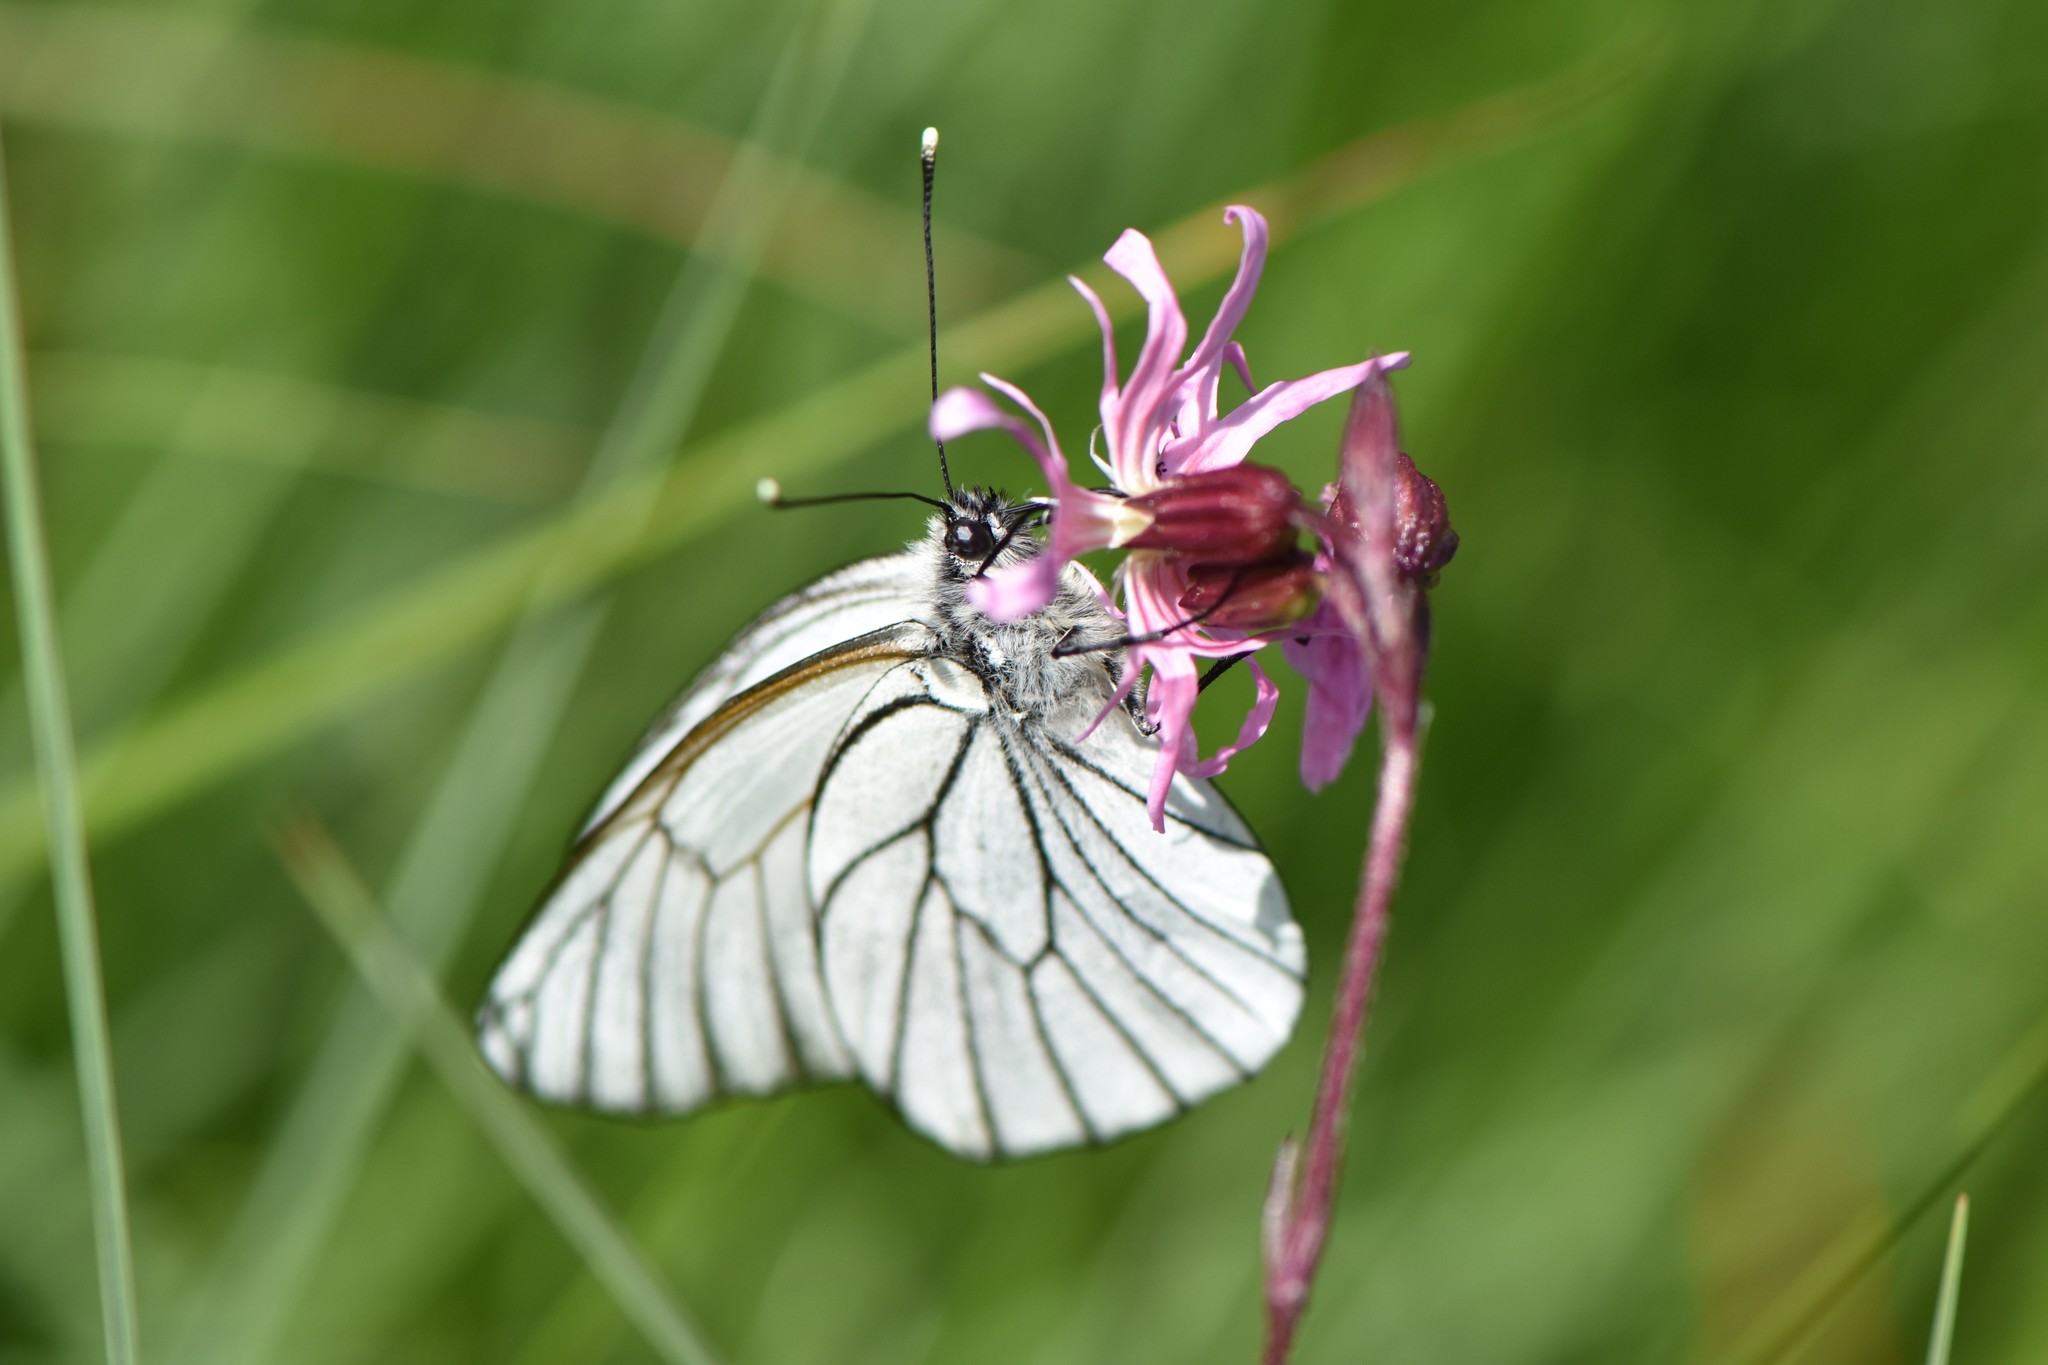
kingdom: Animalia
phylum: Arthropoda
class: Insecta
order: Lepidoptera
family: Pieridae
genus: Aporia
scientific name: Aporia crataegi
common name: Black-veined white
